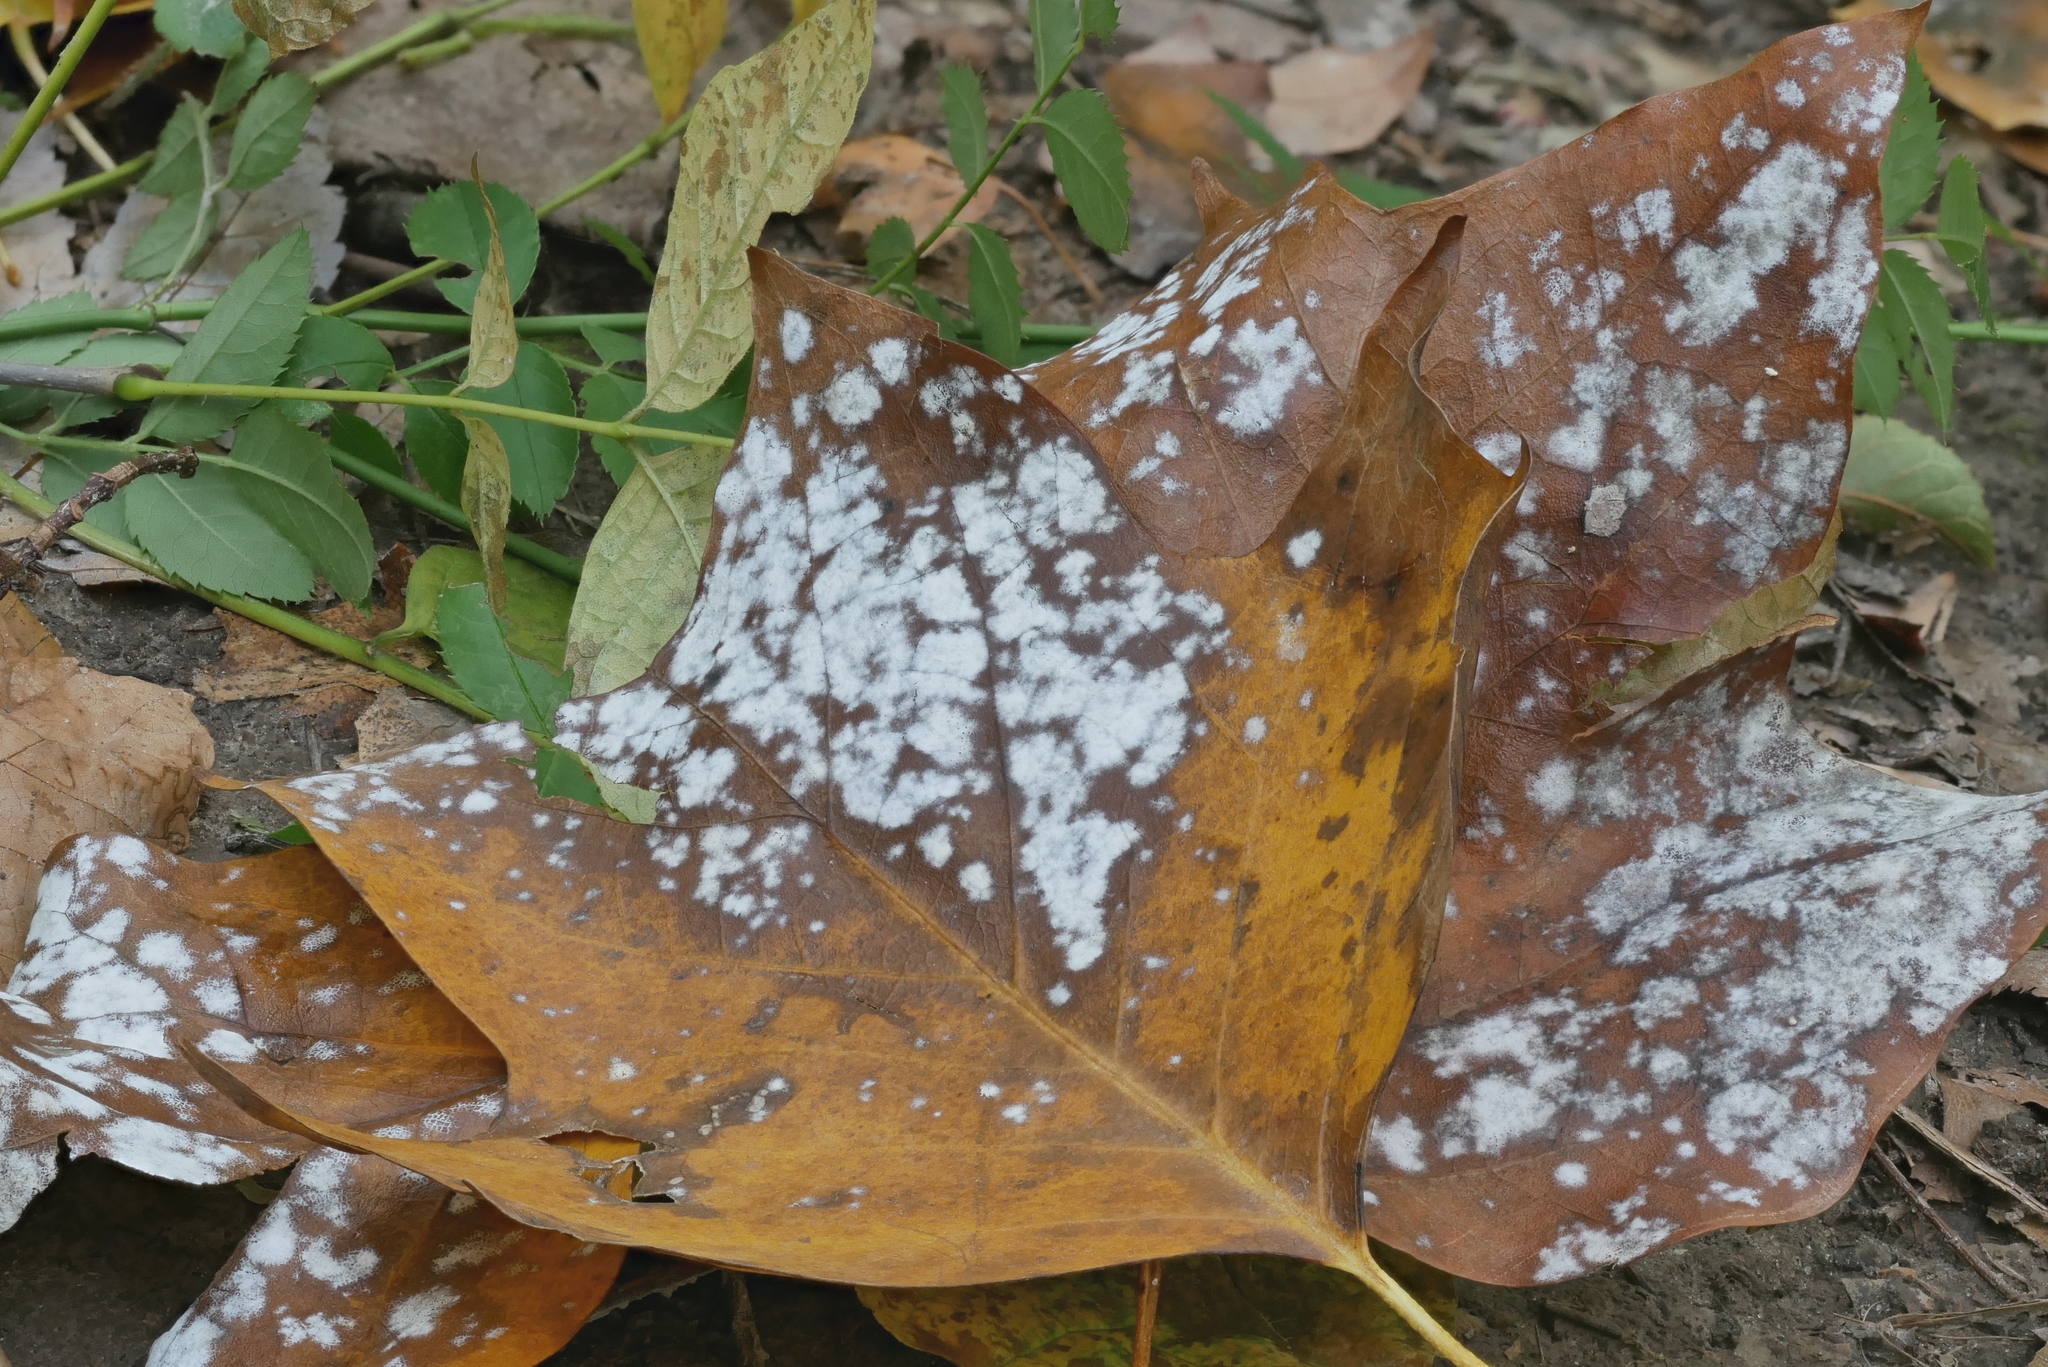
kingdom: Fungi
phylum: Ascomycota
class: Leotiomycetes
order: Helotiales
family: Erysiphaceae
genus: Erysiphe
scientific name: Erysiphe liriodendri
